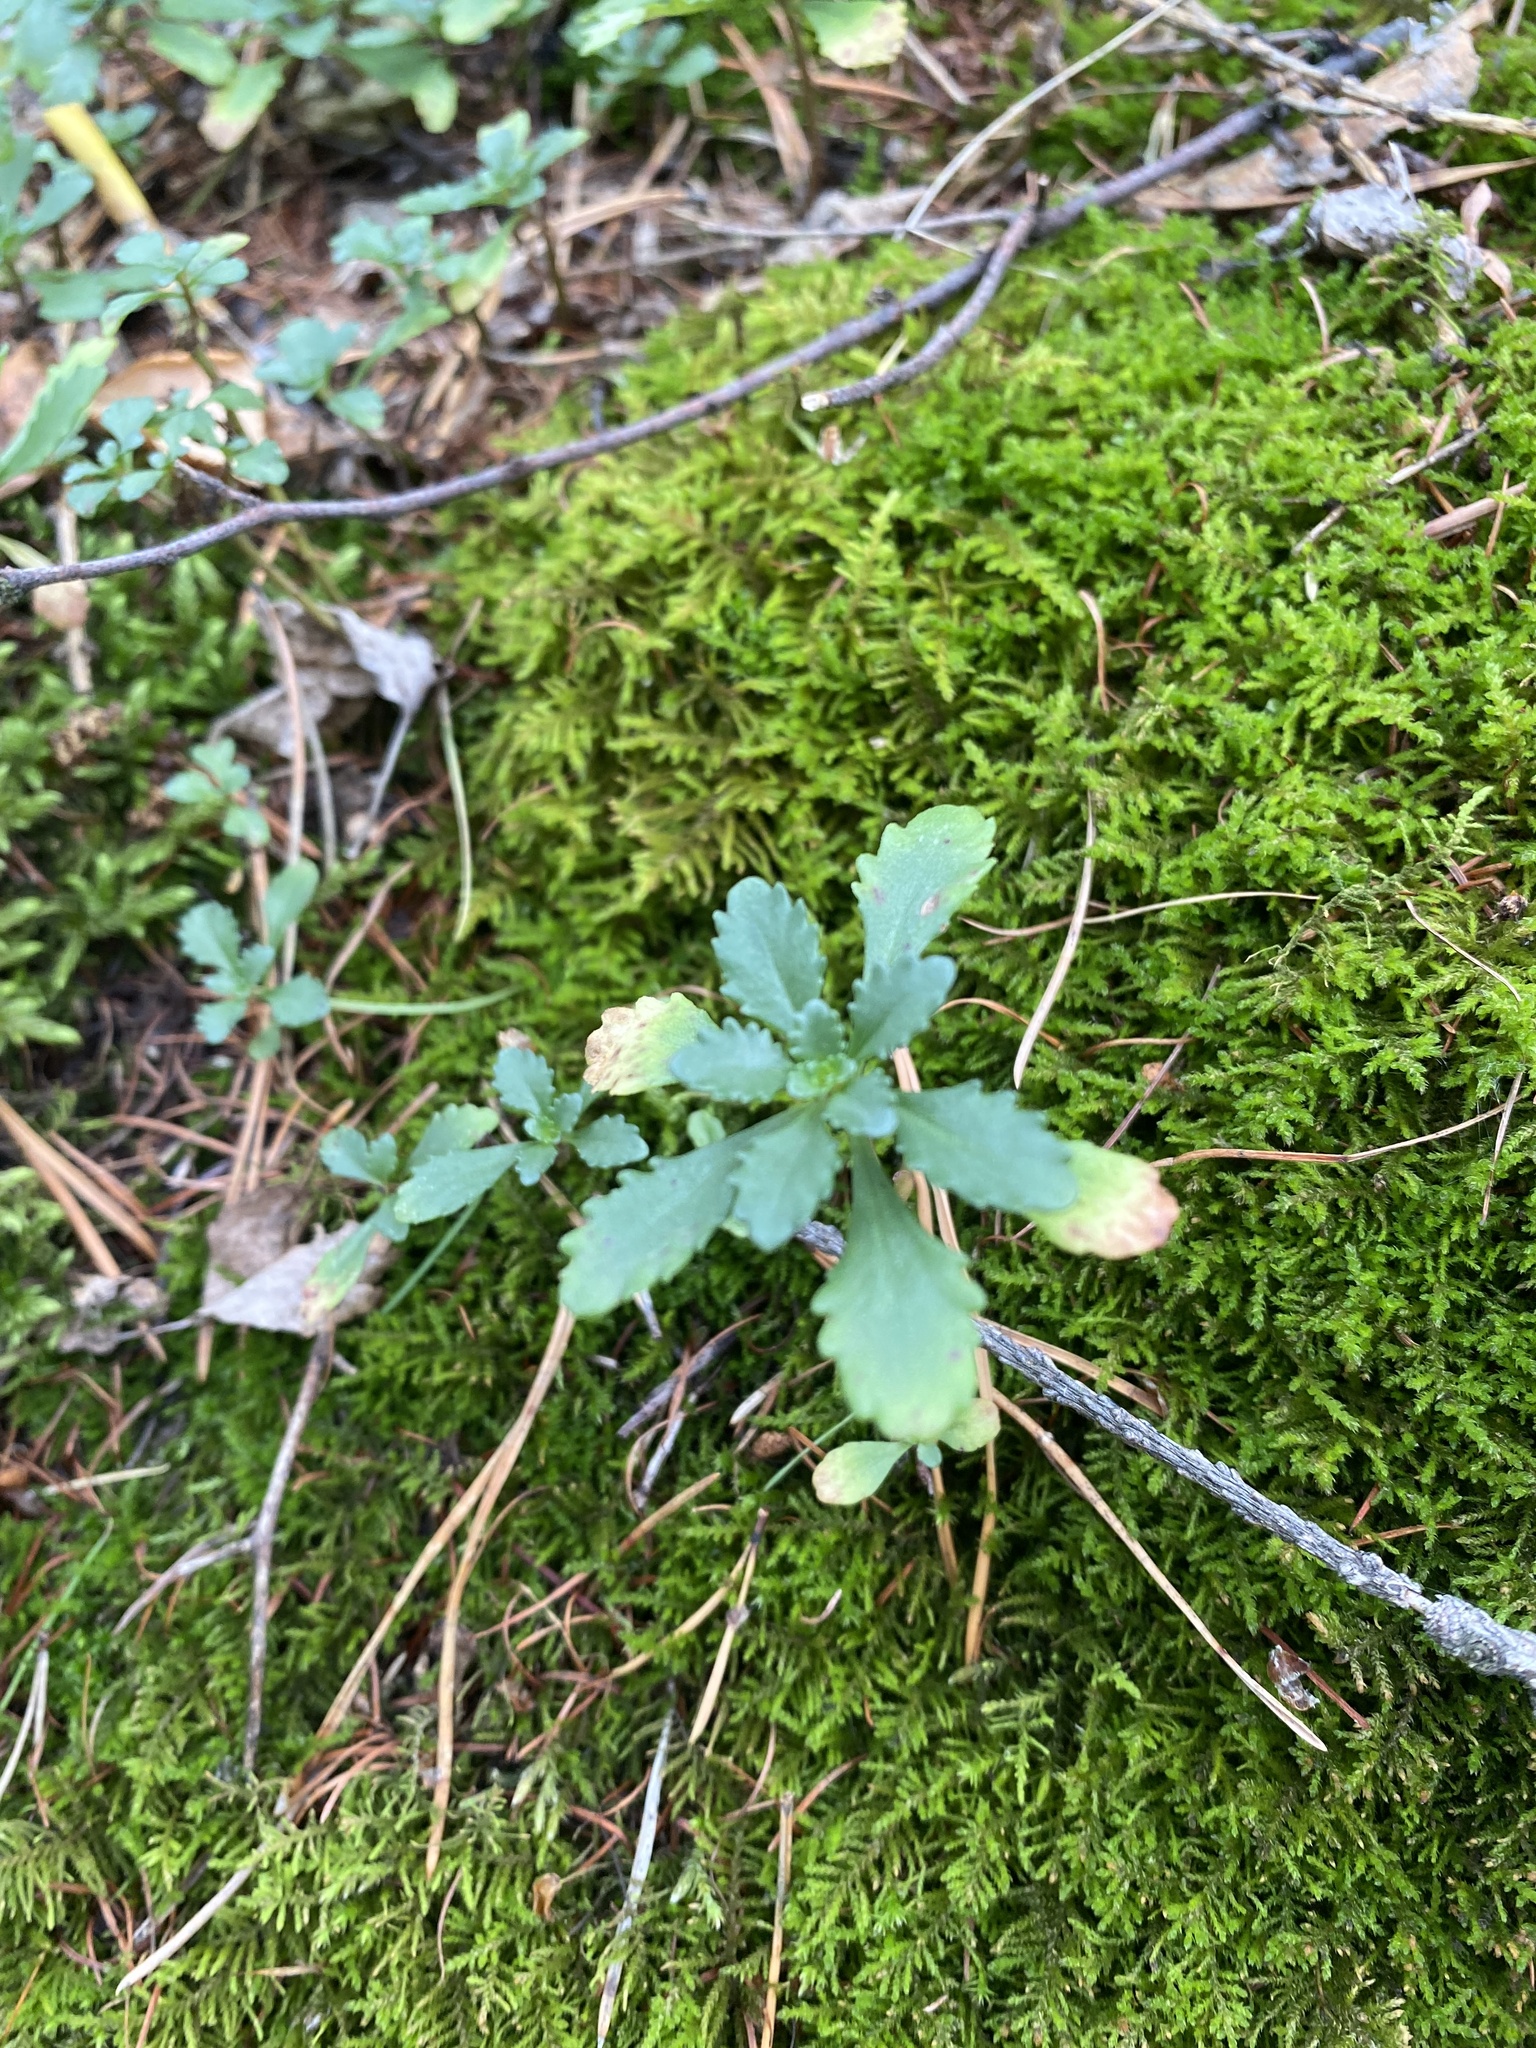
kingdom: Plantae
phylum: Tracheophyta
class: Magnoliopsida
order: Saxifragales
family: Crassulaceae
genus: Phedimus
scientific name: Phedimus hybridus
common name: Hybrid stonecrop
